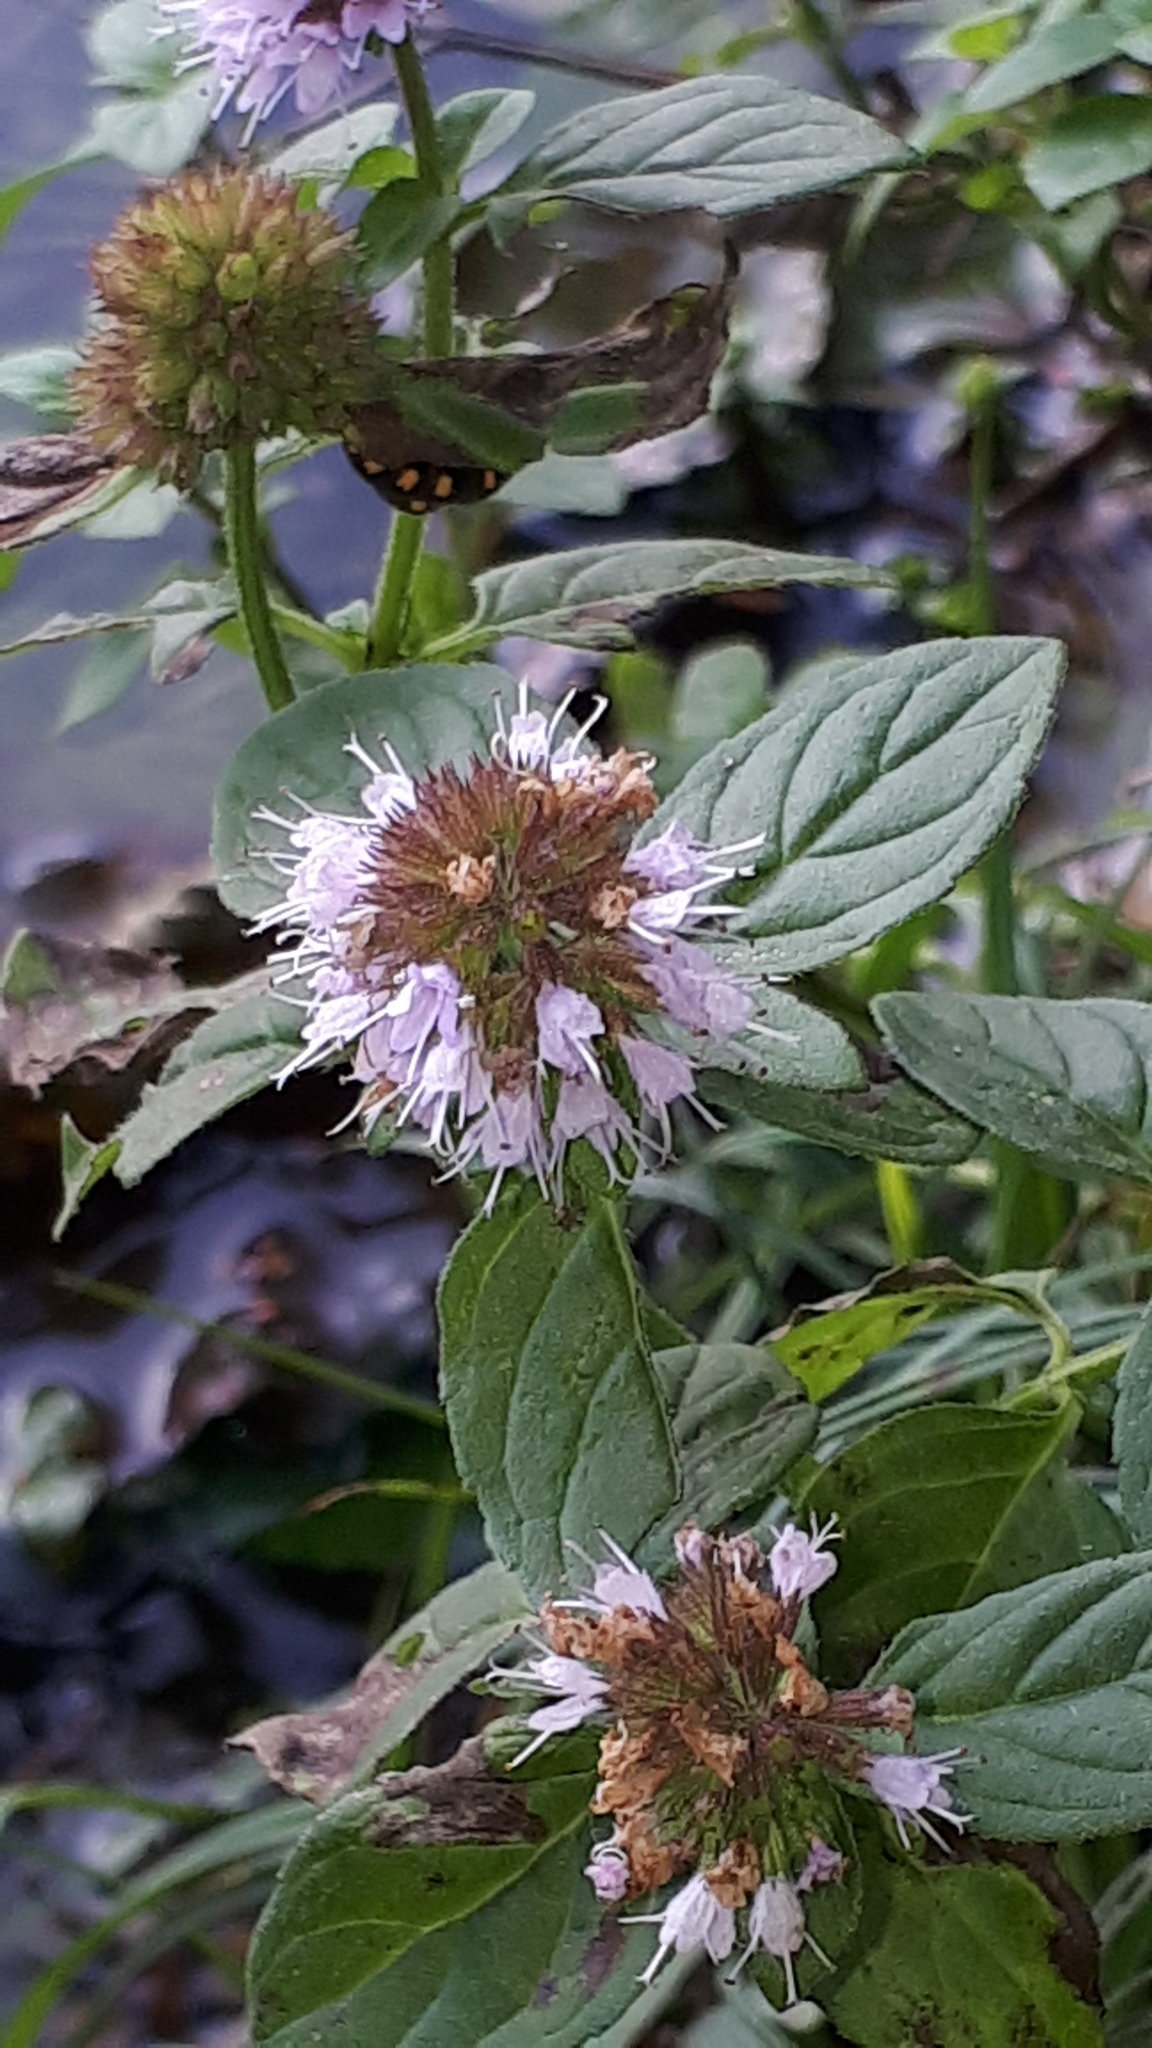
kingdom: Plantae
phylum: Tracheophyta
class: Magnoliopsida
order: Lamiales
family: Lamiaceae
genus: Mentha
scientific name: Mentha aquatica
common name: Water mint
